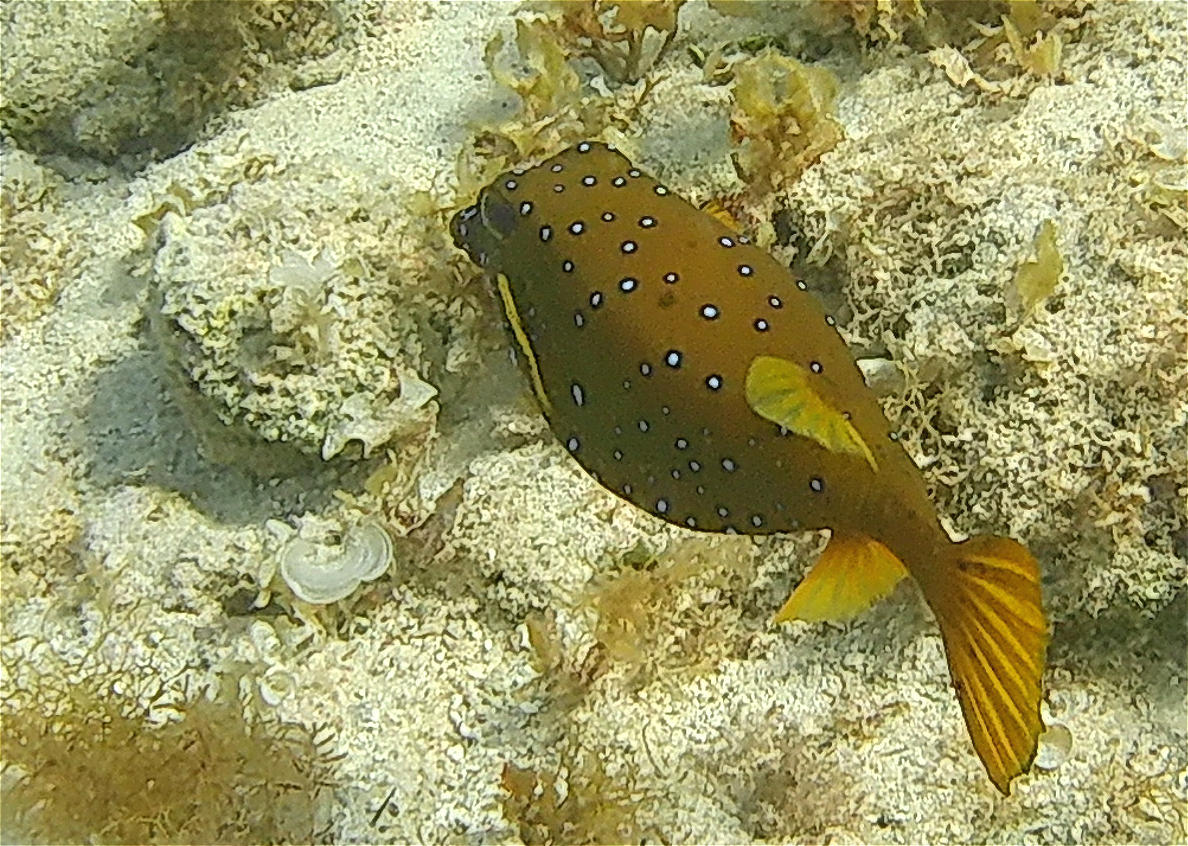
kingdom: Animalia
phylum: Chordata
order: Tetraodontiformes
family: Ostraciidae
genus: Ostracion
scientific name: Ostracion cubicus
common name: Cube trunkfish
